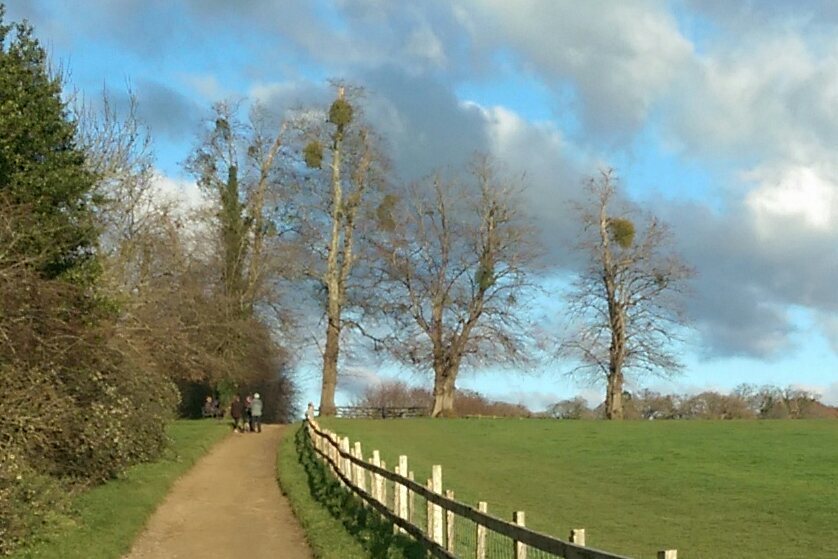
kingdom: Plantae
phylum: Tracheophyta
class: Magnoliopsida
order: Santalales
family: Viscaceae
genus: Viscum
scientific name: Viscum album
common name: Mistletoe
